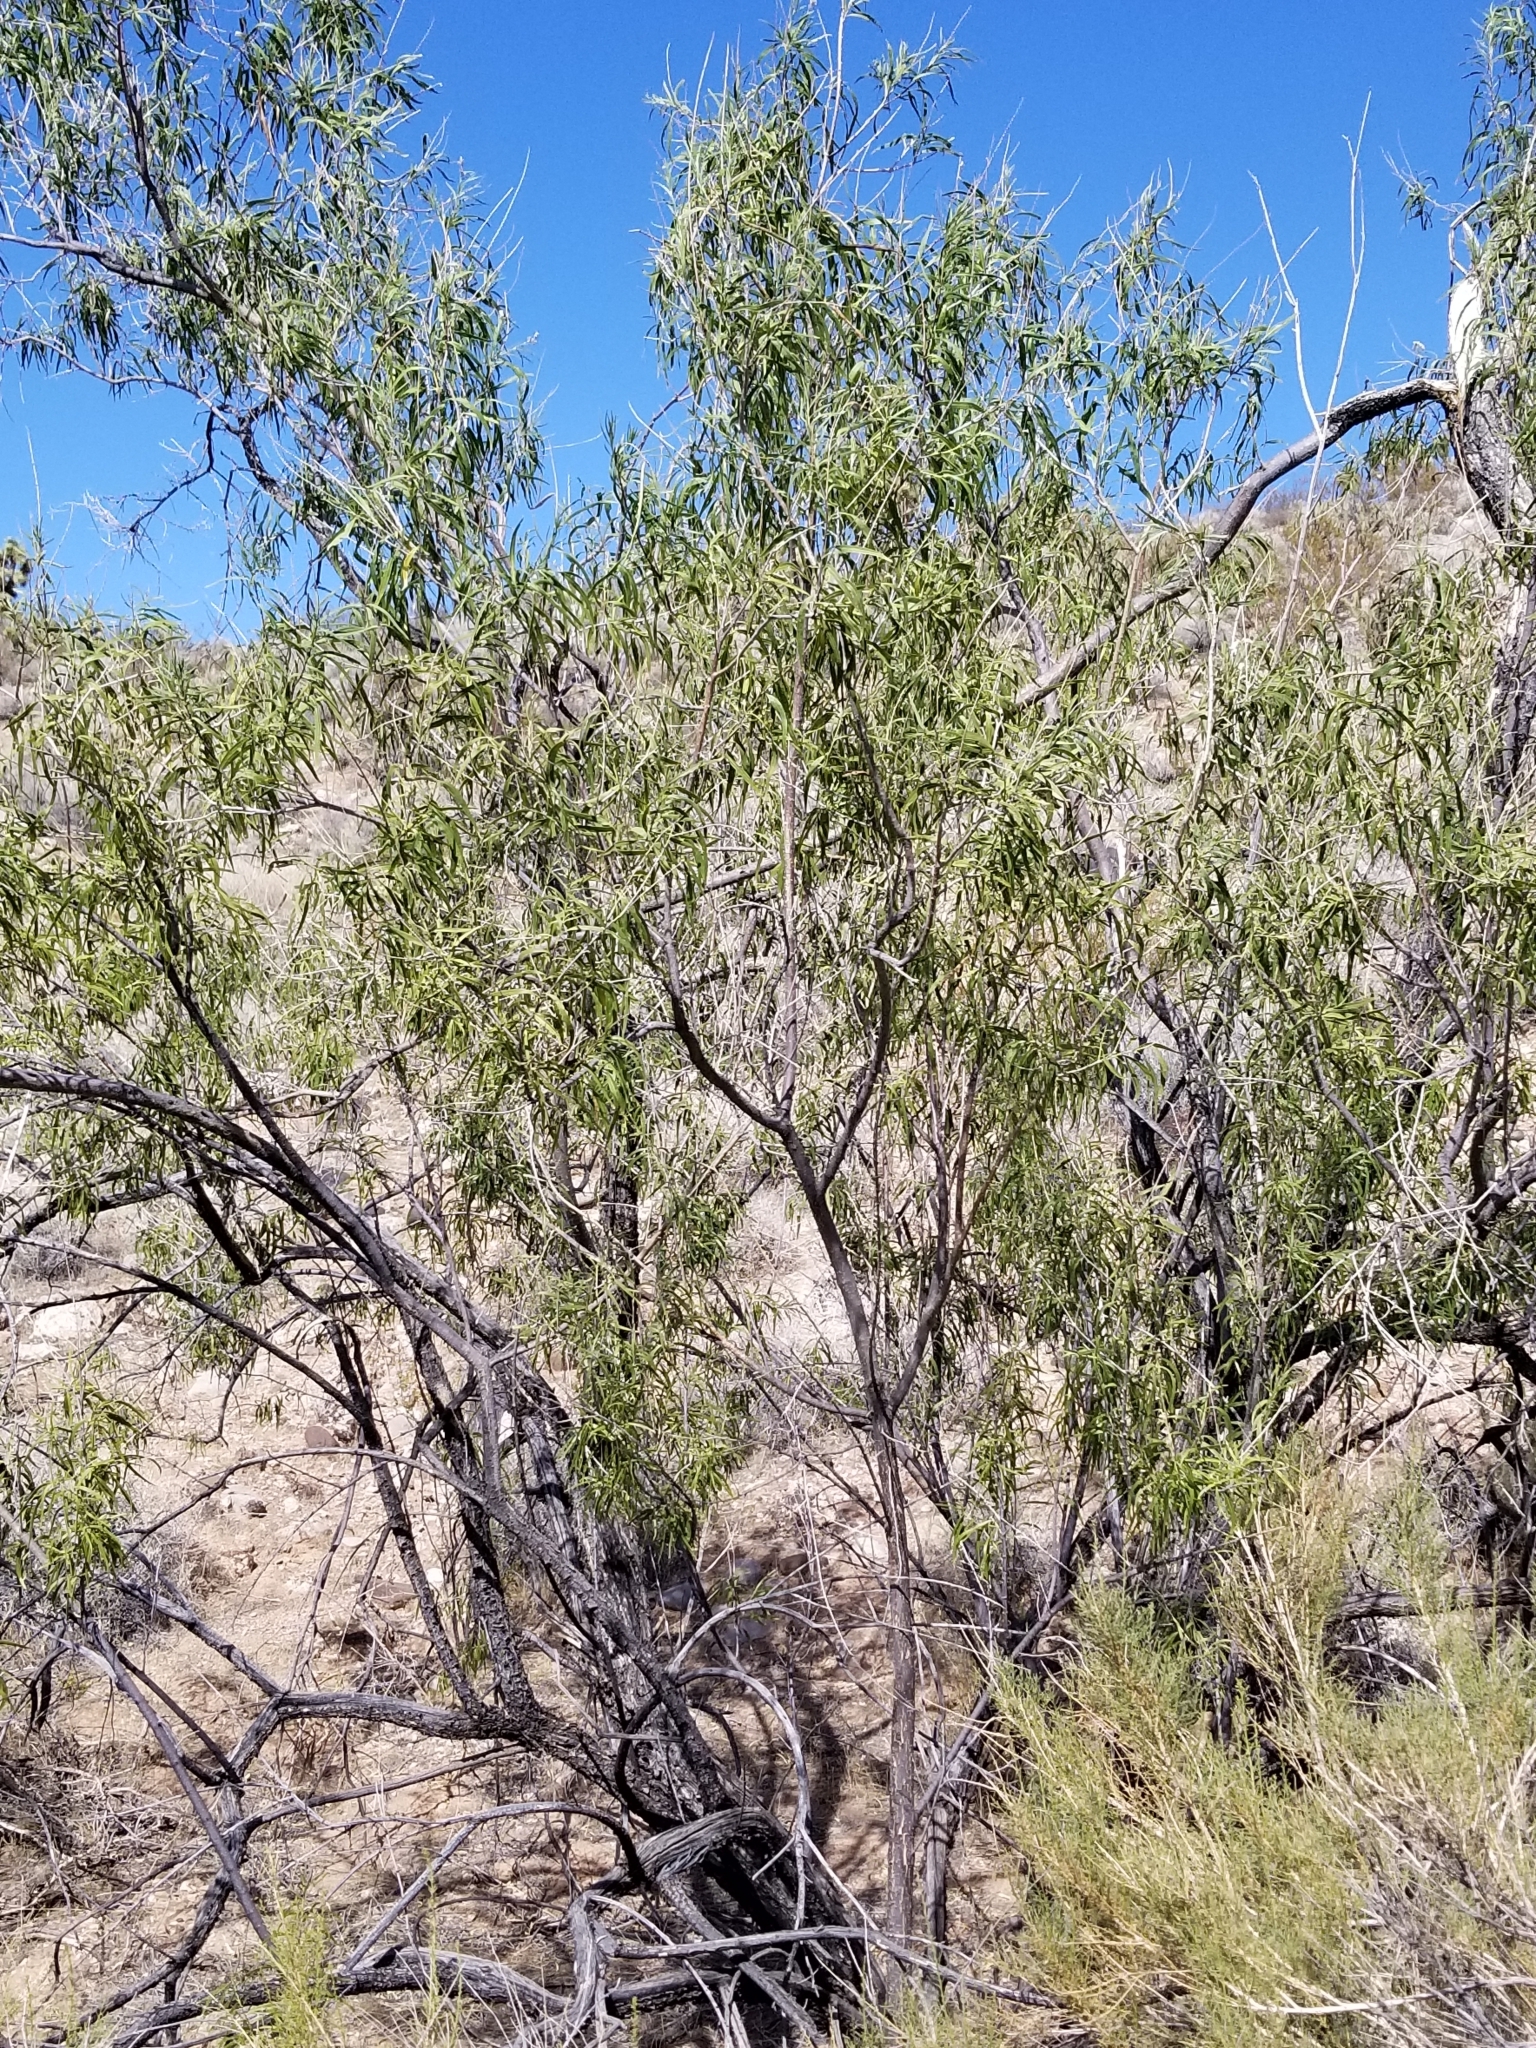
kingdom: Plantae
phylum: Tracheophyta
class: Magnoliopsida
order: Lamiales
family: Bignoniaceae
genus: Chilopsis
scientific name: Chilopsis linearis
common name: Desert-willow
